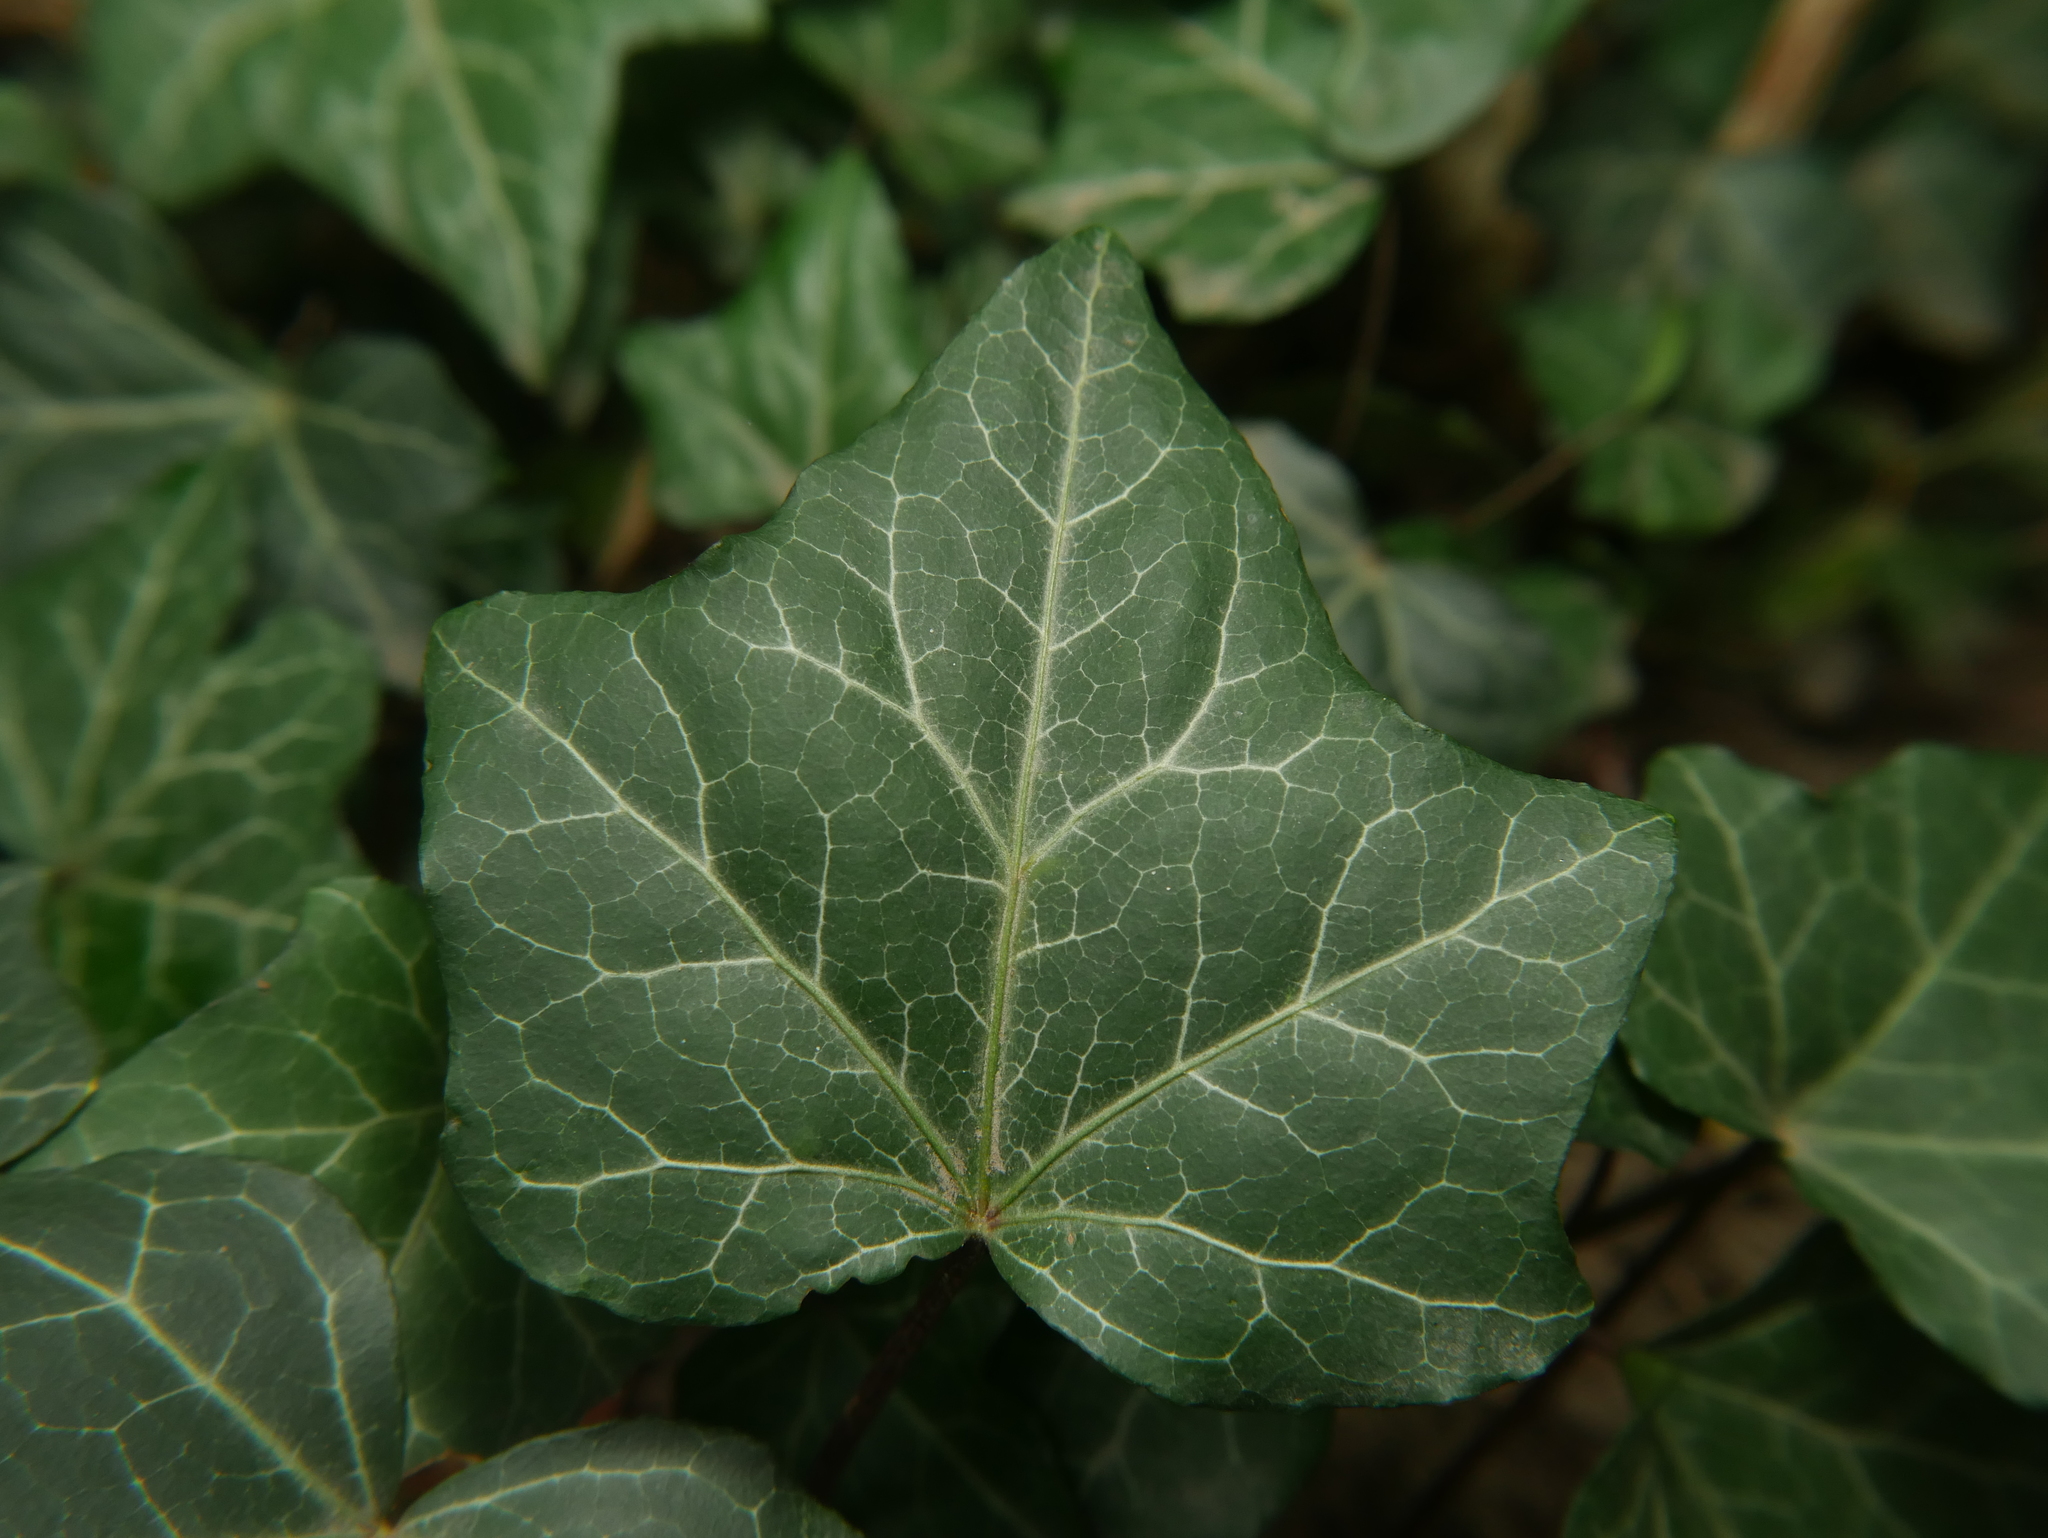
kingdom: Plantae
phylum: Tracheophyta
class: Magnoliopsida
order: Apiales
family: Araliaceae
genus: Hedera
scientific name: Hedera helix
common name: Ivy
